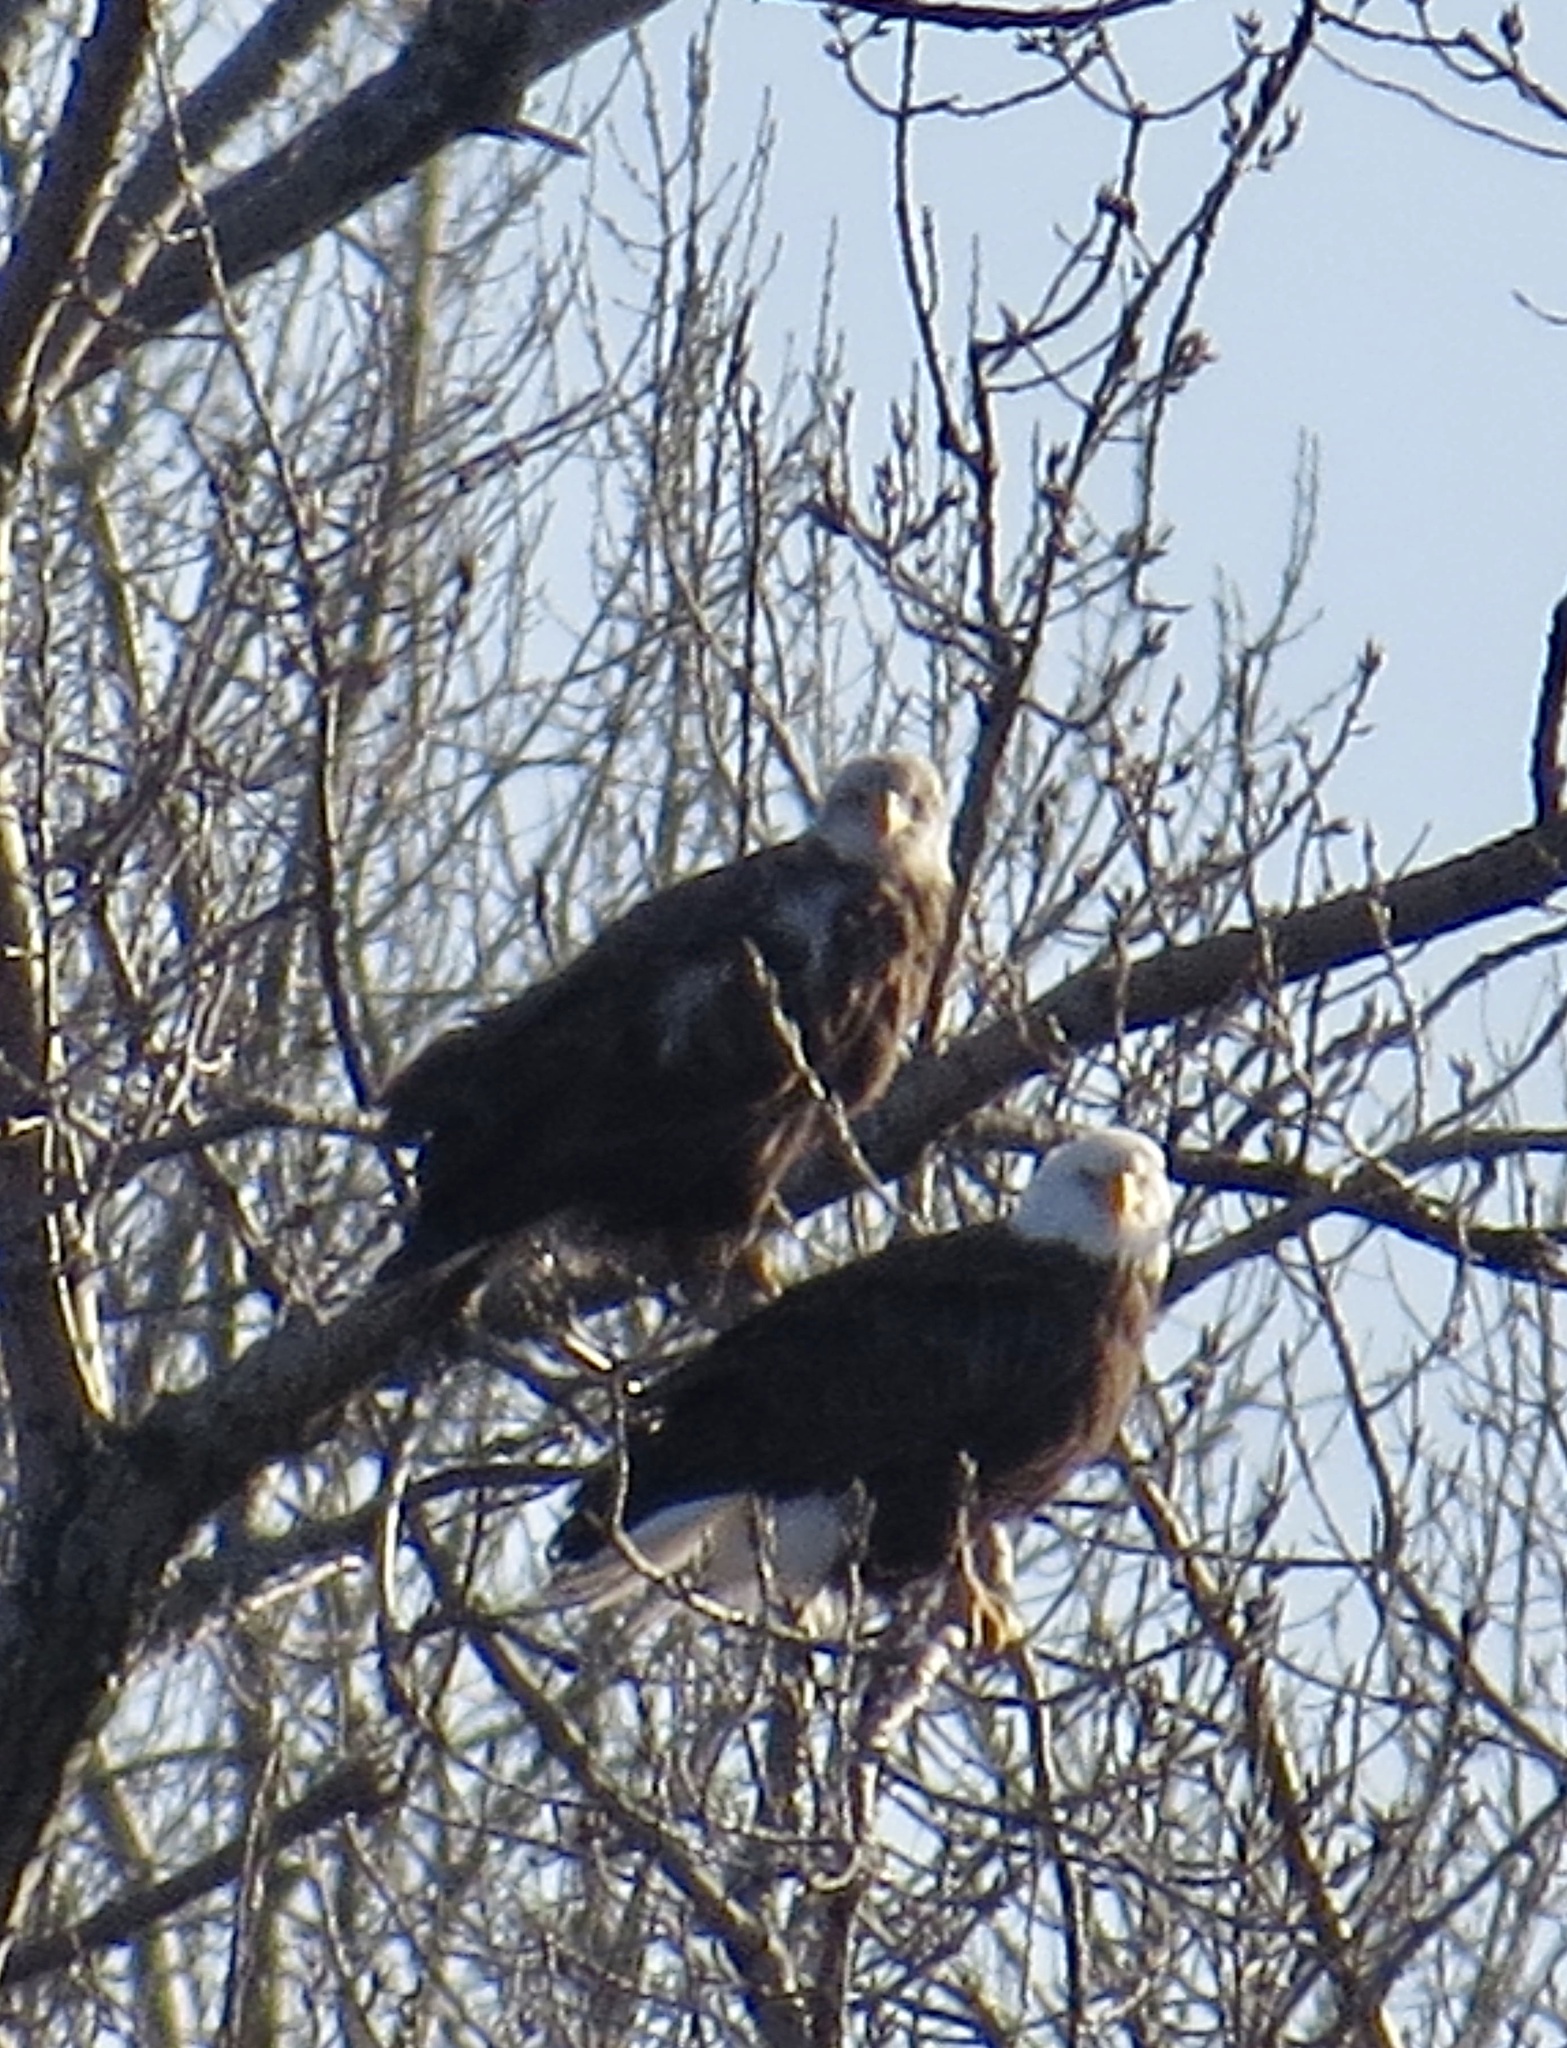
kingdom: Animalia
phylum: Chordata
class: Aves
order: Accipitriformes
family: Accipitridae
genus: Haliaeetus
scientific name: Haliaeetus leucocephalus
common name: Bald eagle
